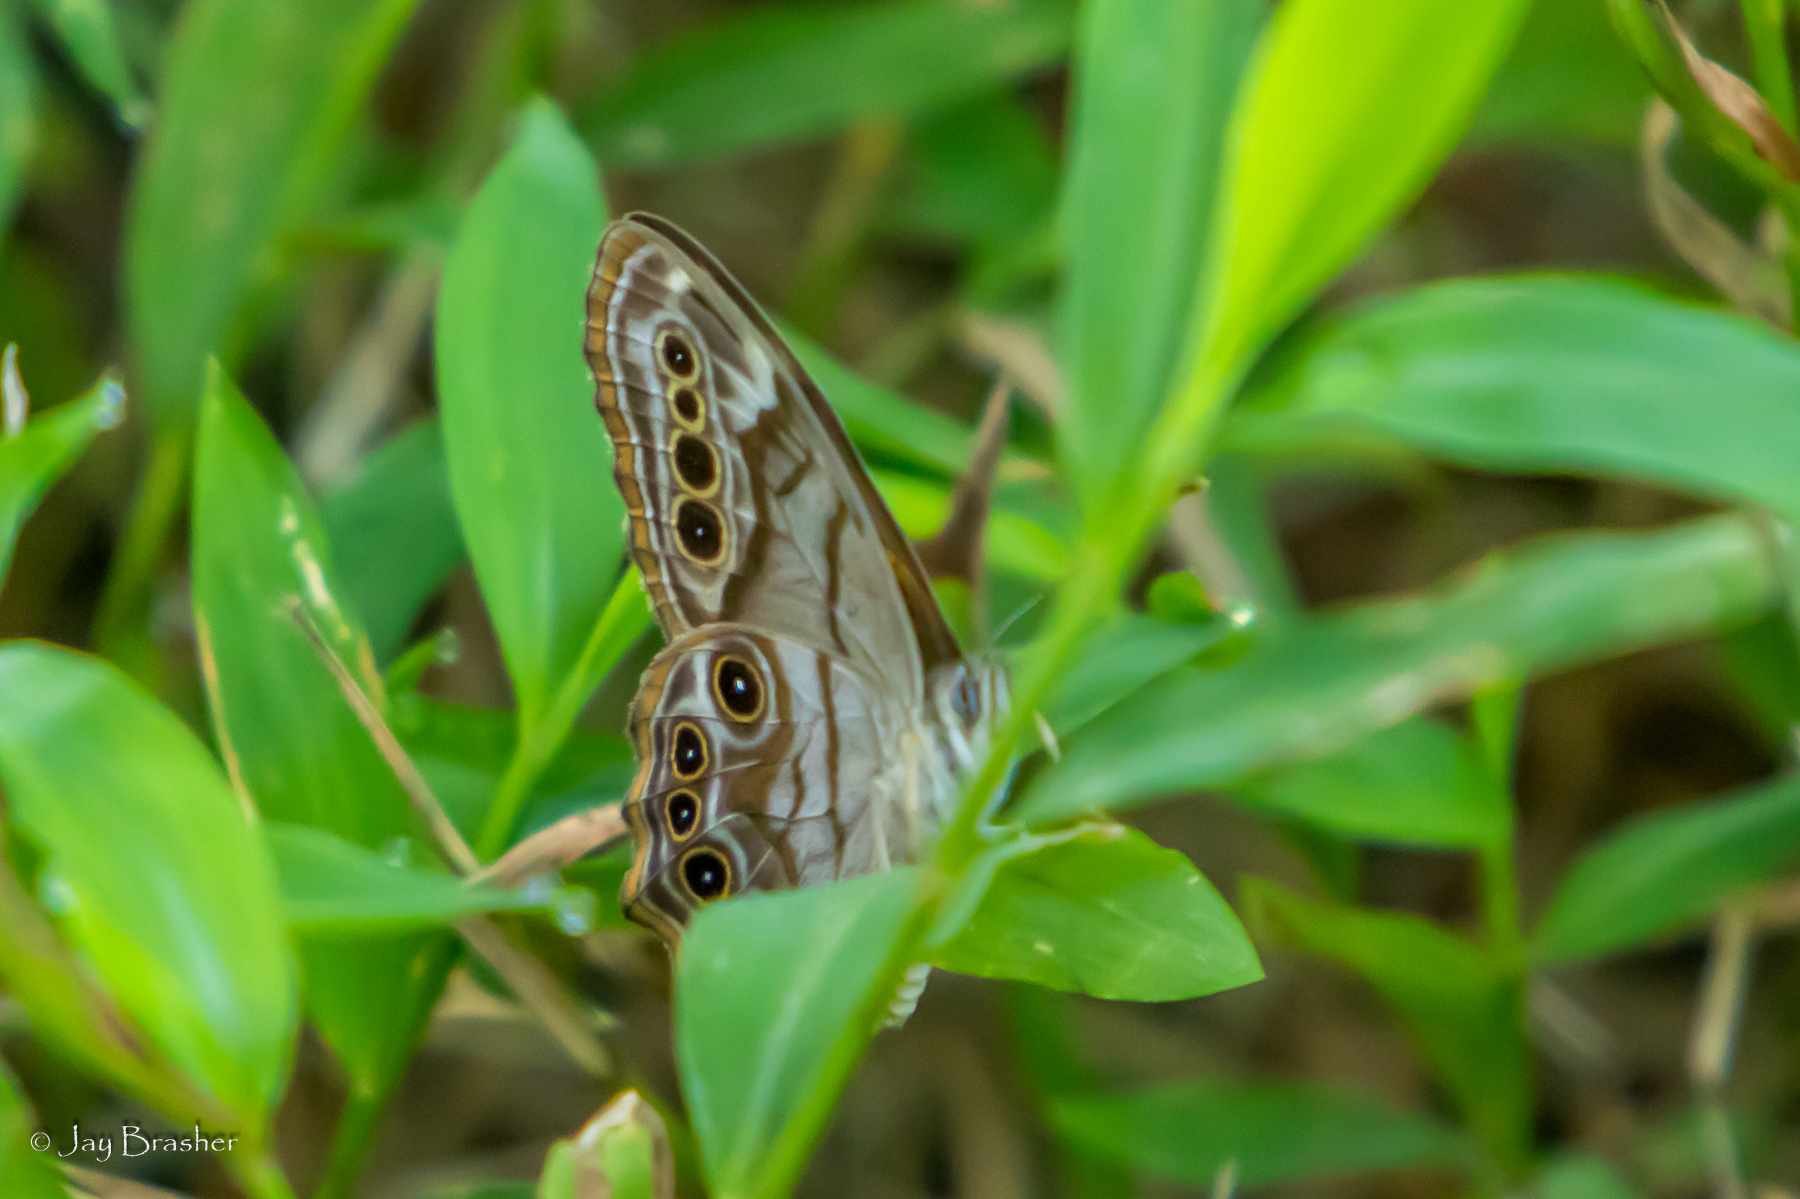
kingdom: Animalia
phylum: Arthropoda
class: Insecta
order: Lepidoptera
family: Nymphalidae
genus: Lethe
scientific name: Lethe anthedon
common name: Northern pearly-eye
